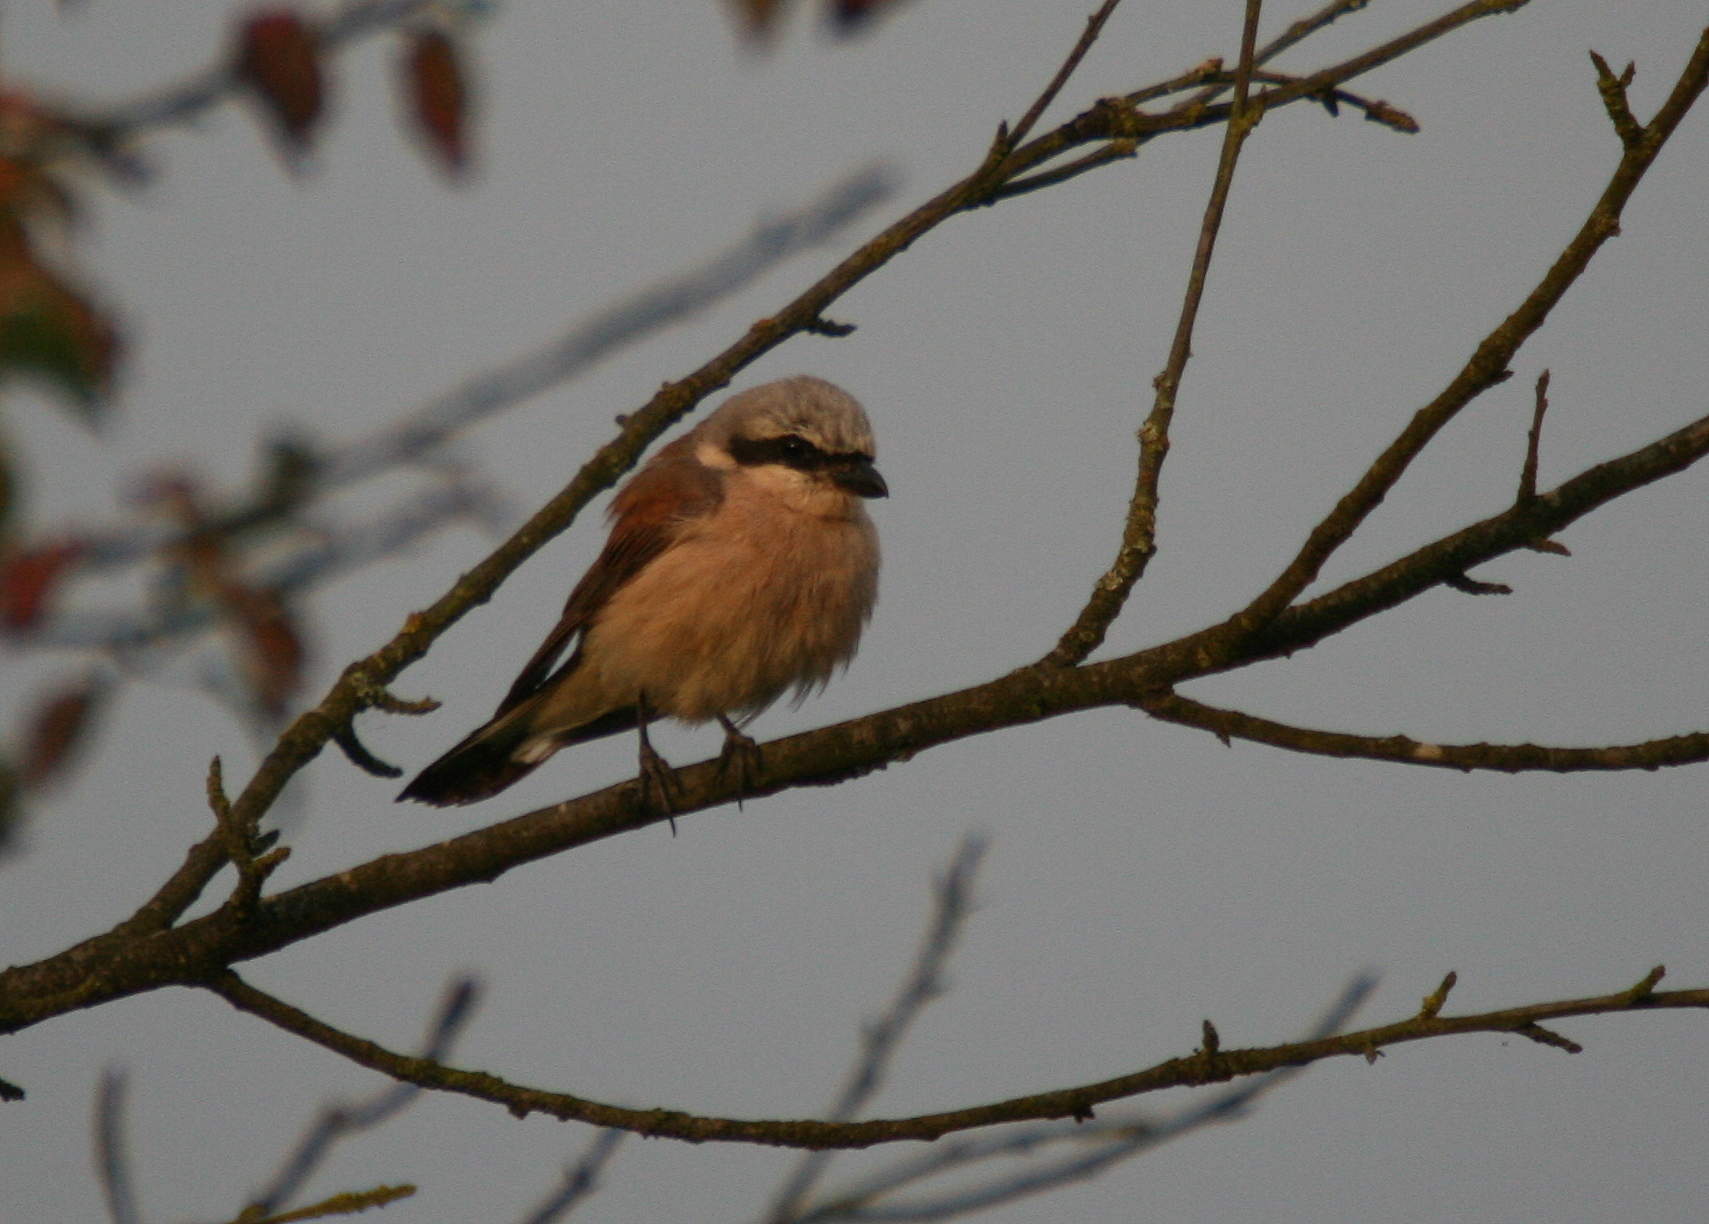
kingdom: Animalia
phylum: Chordata
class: Aves
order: Passeriformes
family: Laniidae
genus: Lanius
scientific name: Lanius collurio
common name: Red-backed shrike
